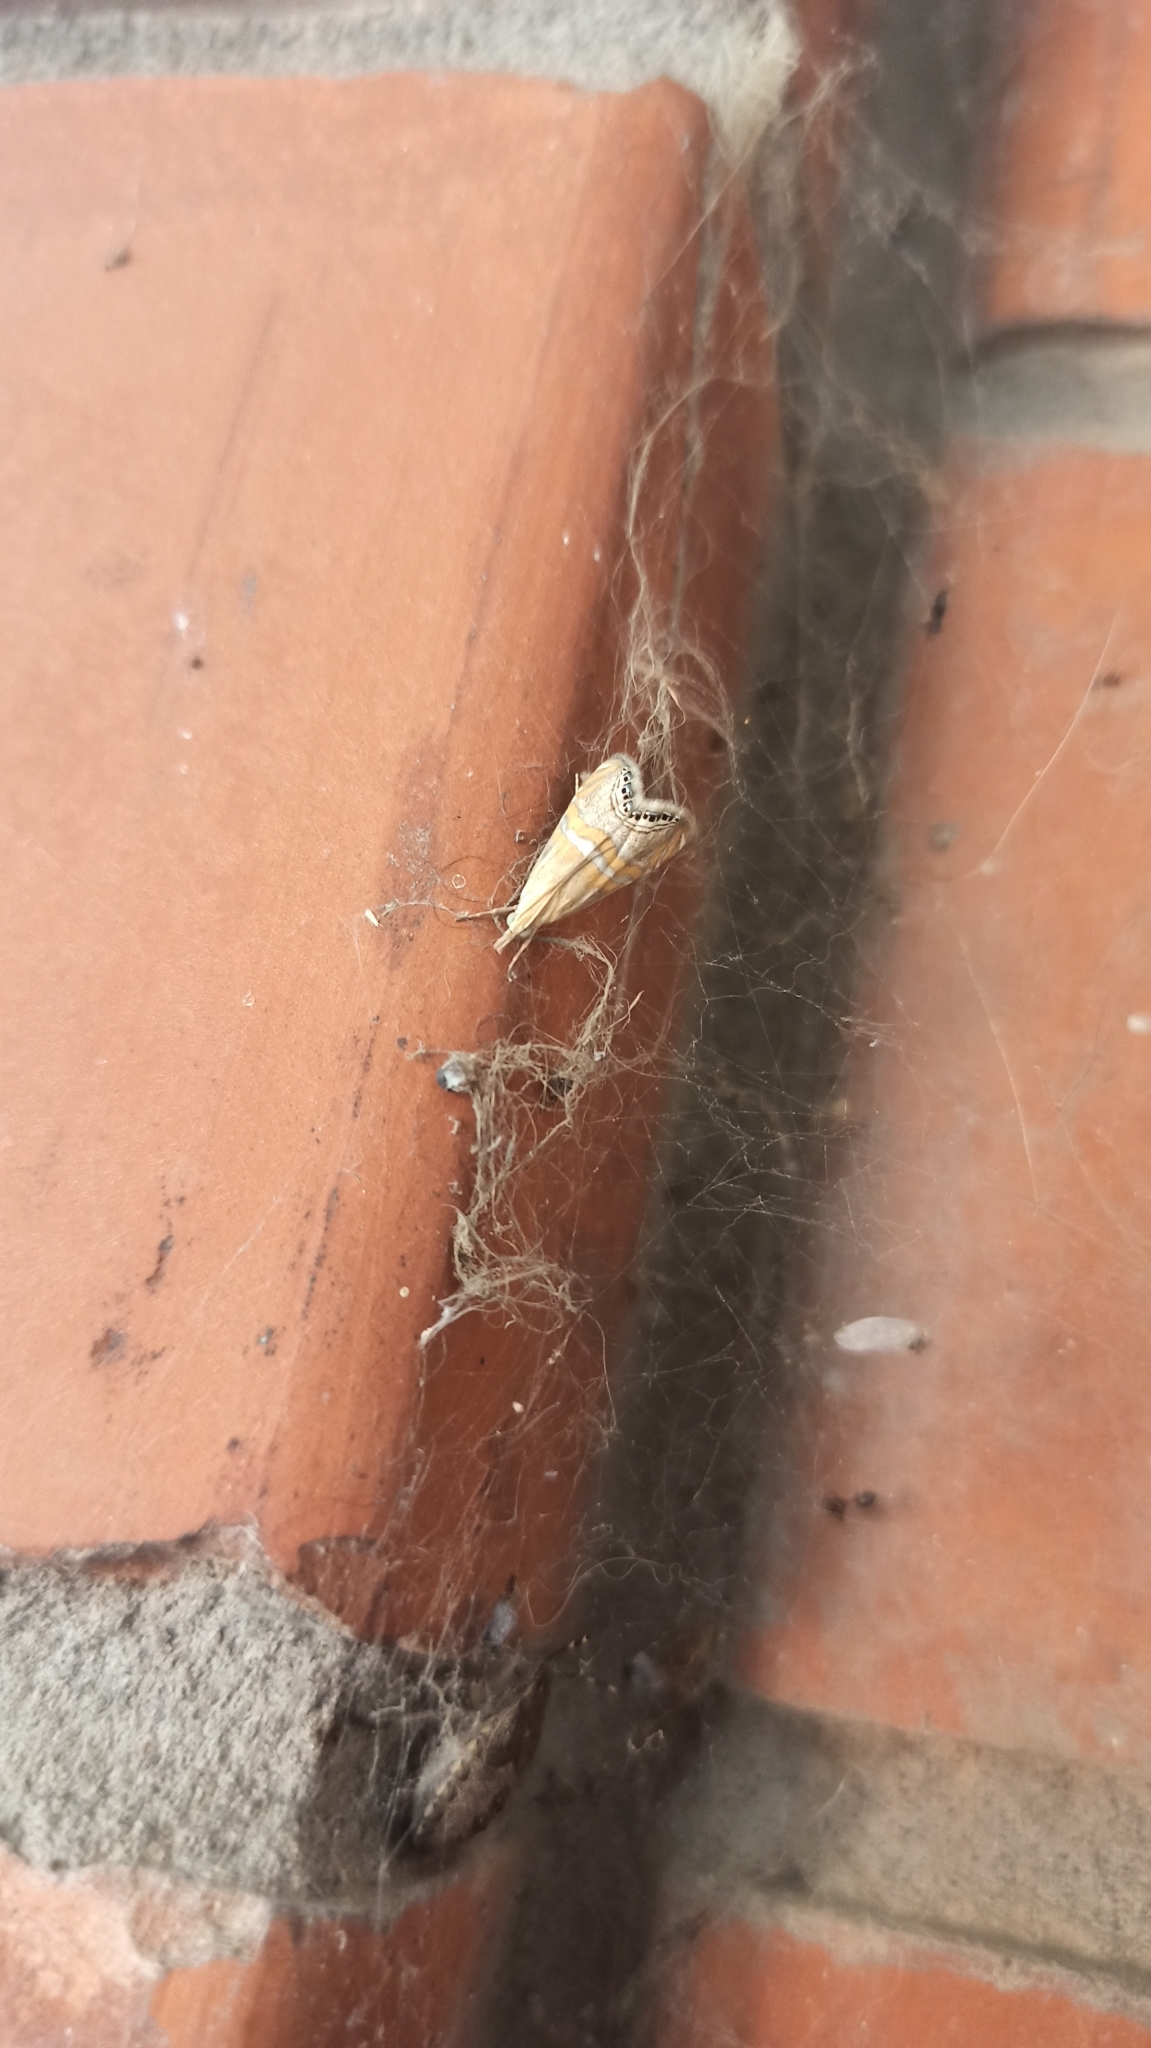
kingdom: Animalia
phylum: Arthropoda
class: Insecta
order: Lepidoptera
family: Crambidae
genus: Euchromius
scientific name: Euchromius bella
